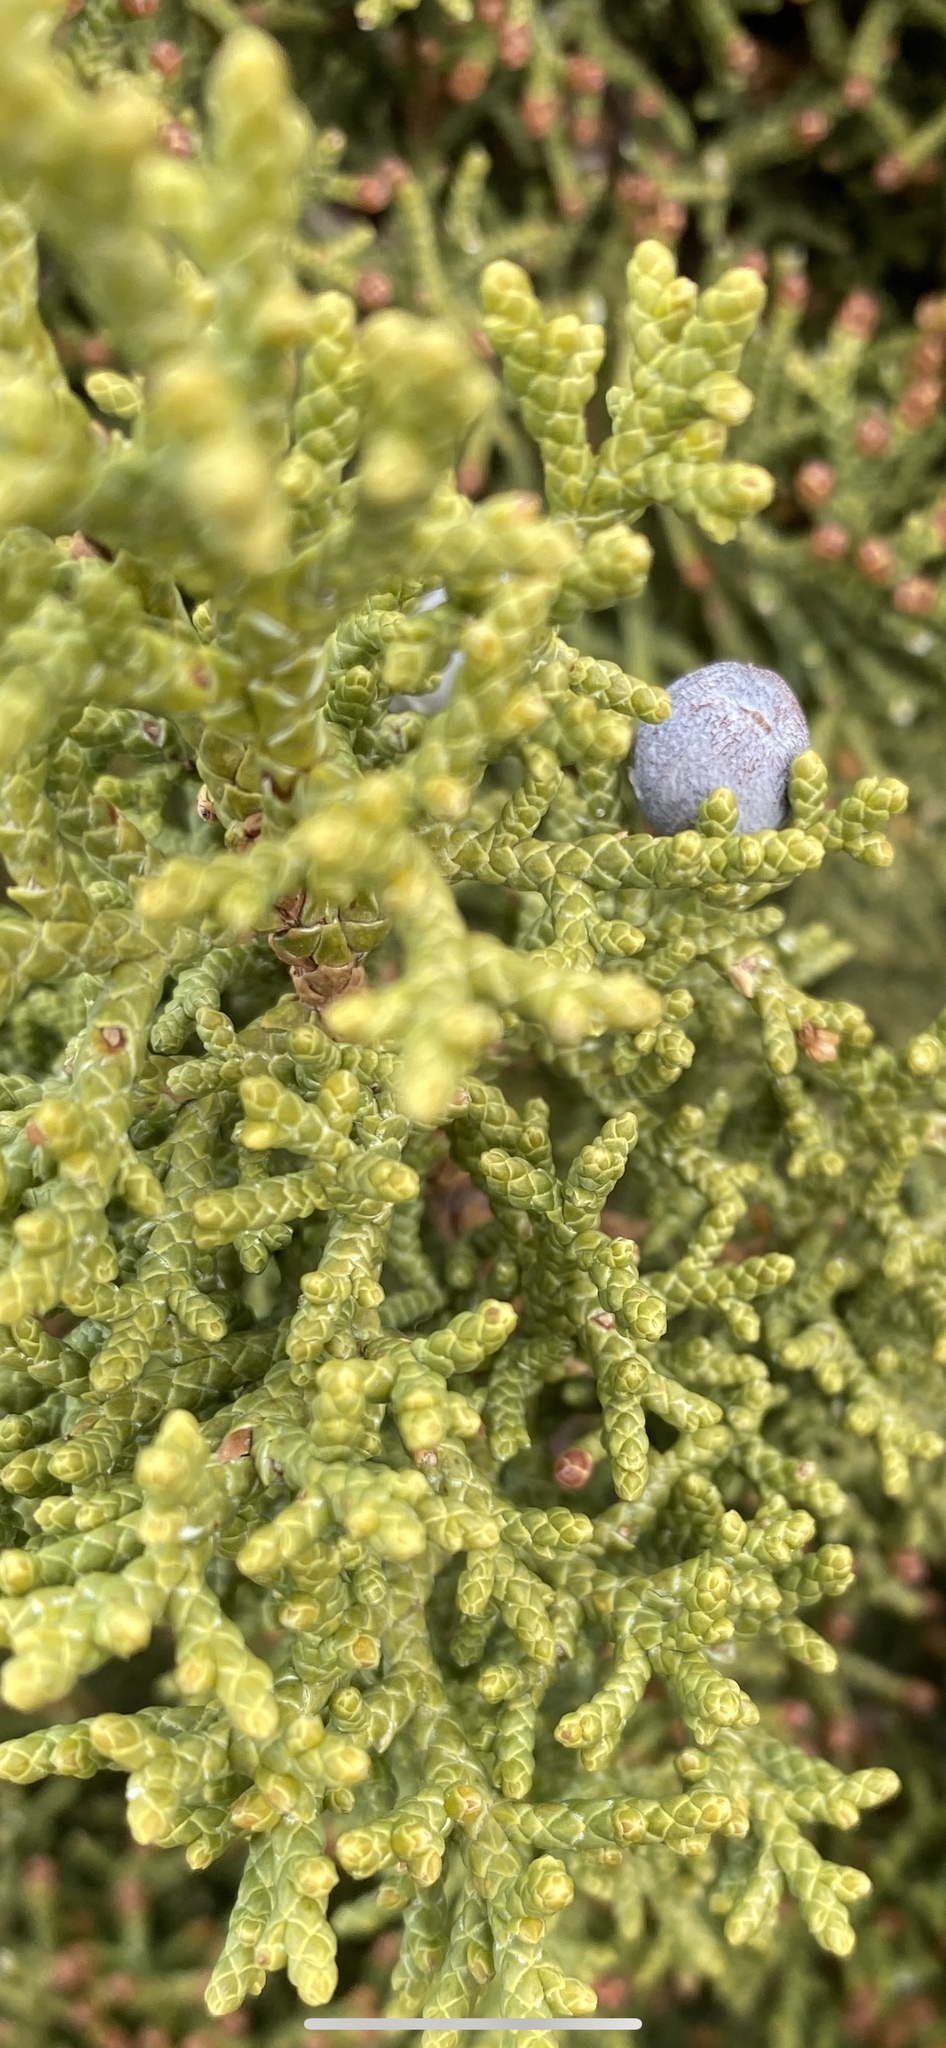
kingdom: Plantae
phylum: Tracheophyta
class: Pinopsida
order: Pinales
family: Cupressaceae
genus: Juniperus
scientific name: Juniperus osteosperma
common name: Utah juniper
